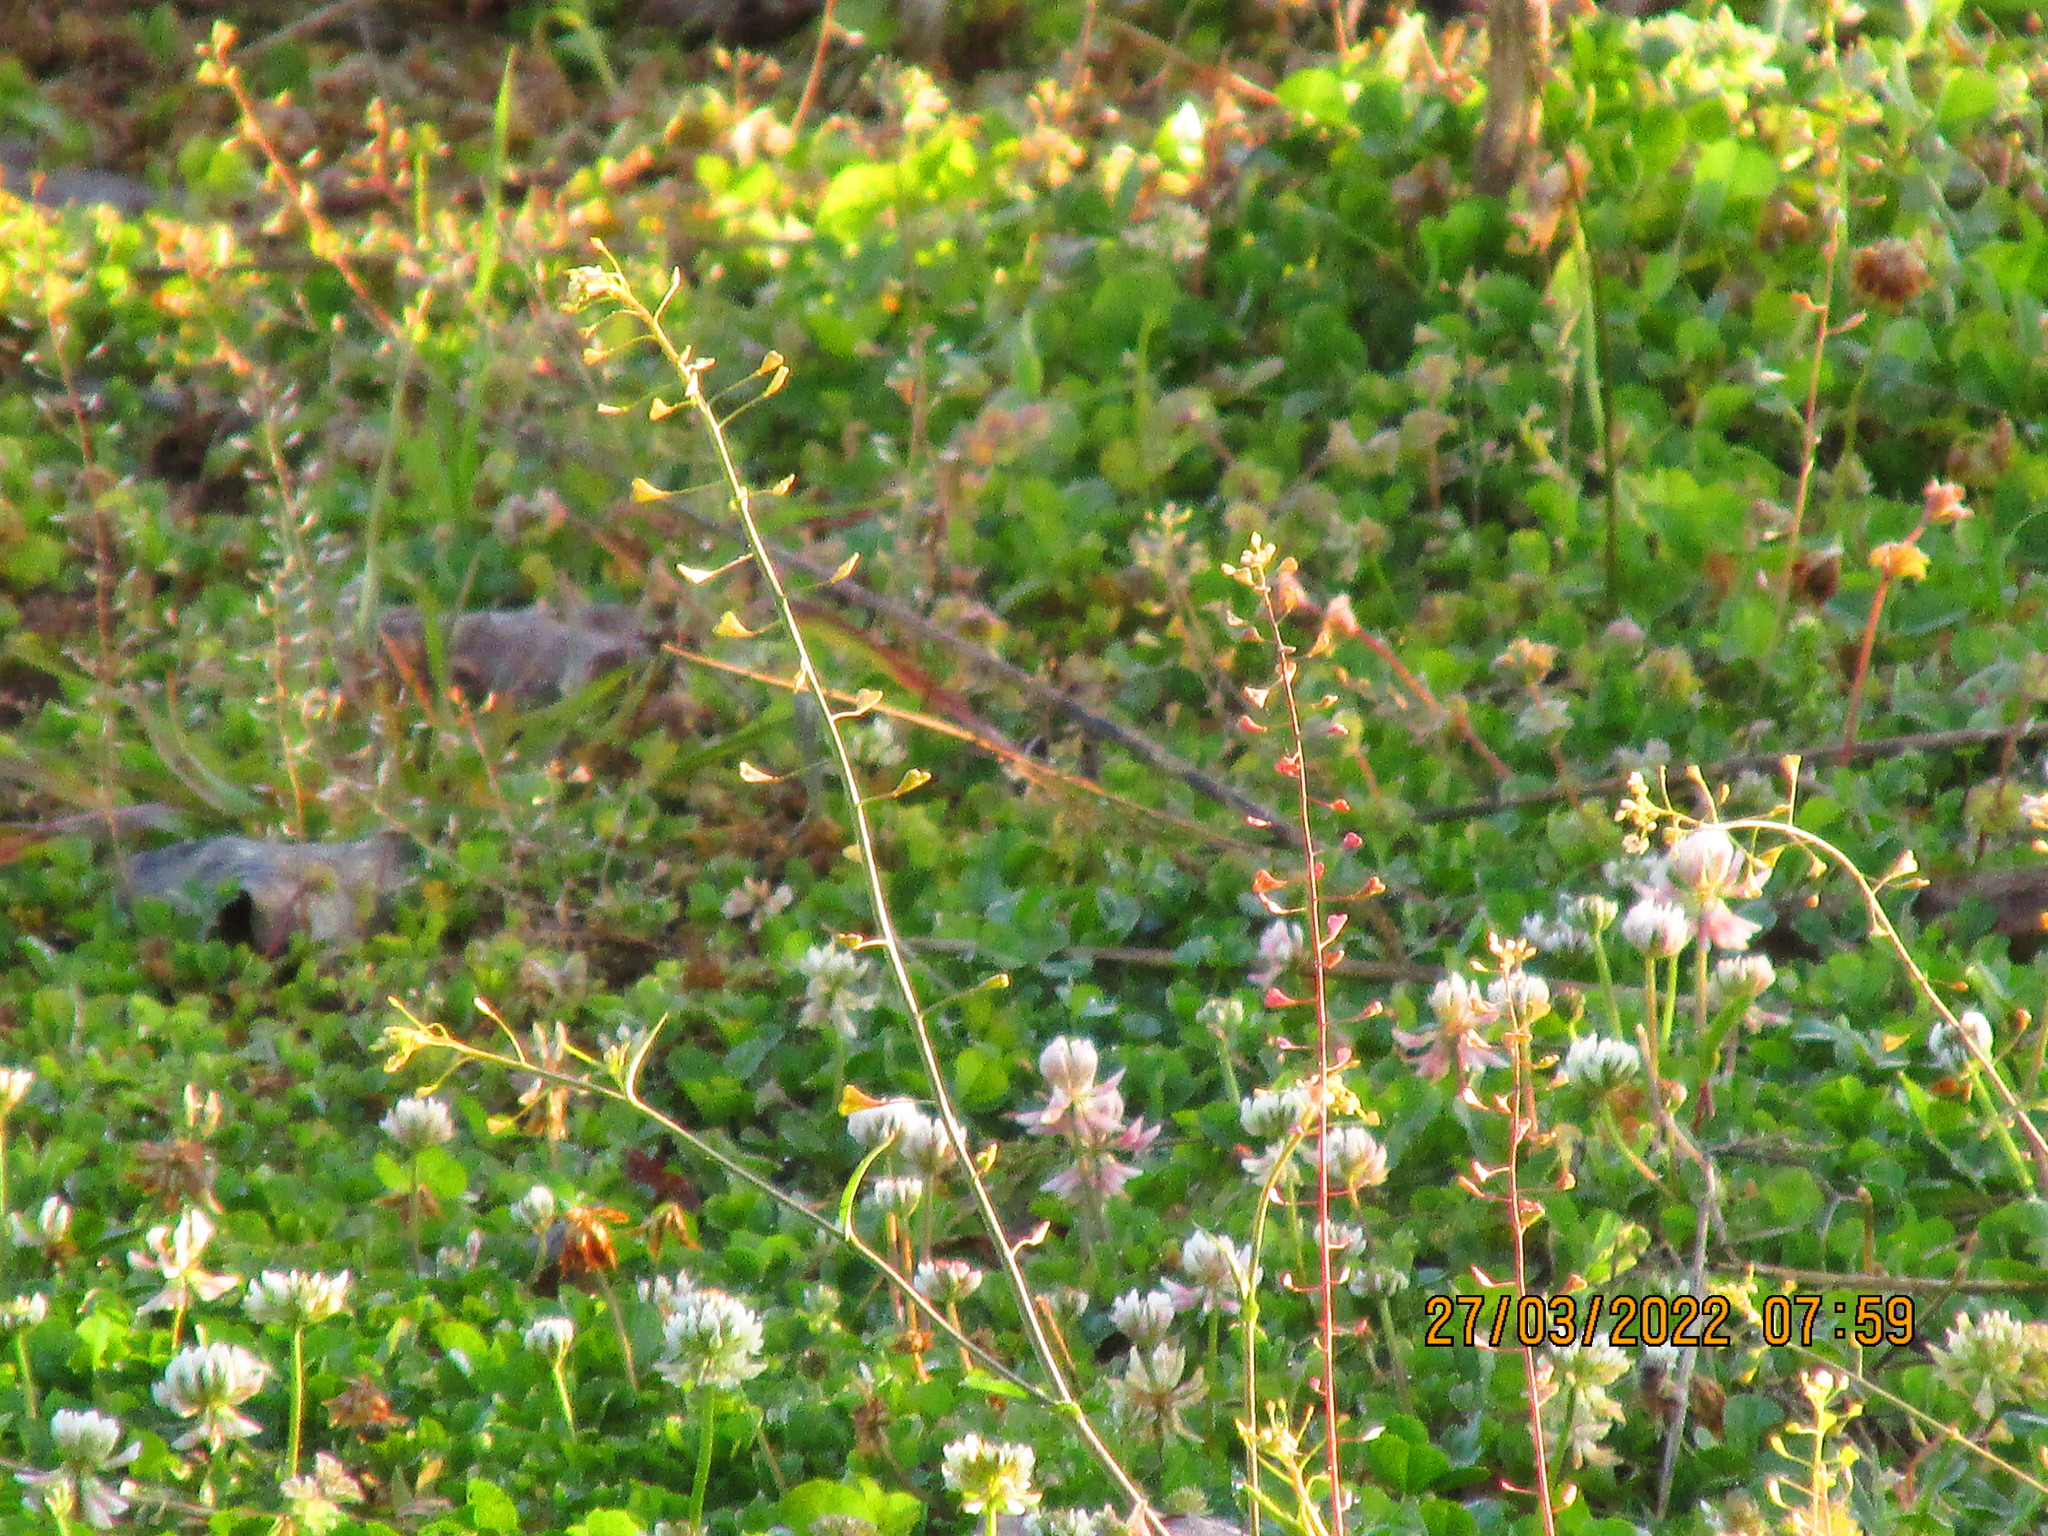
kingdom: Plantae
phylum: Tracheophyta
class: Magnoliopsida
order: Brassicales
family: Brassicaceae
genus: Capsella
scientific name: Capsella bursa-pastoris
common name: Shepherd's purse
